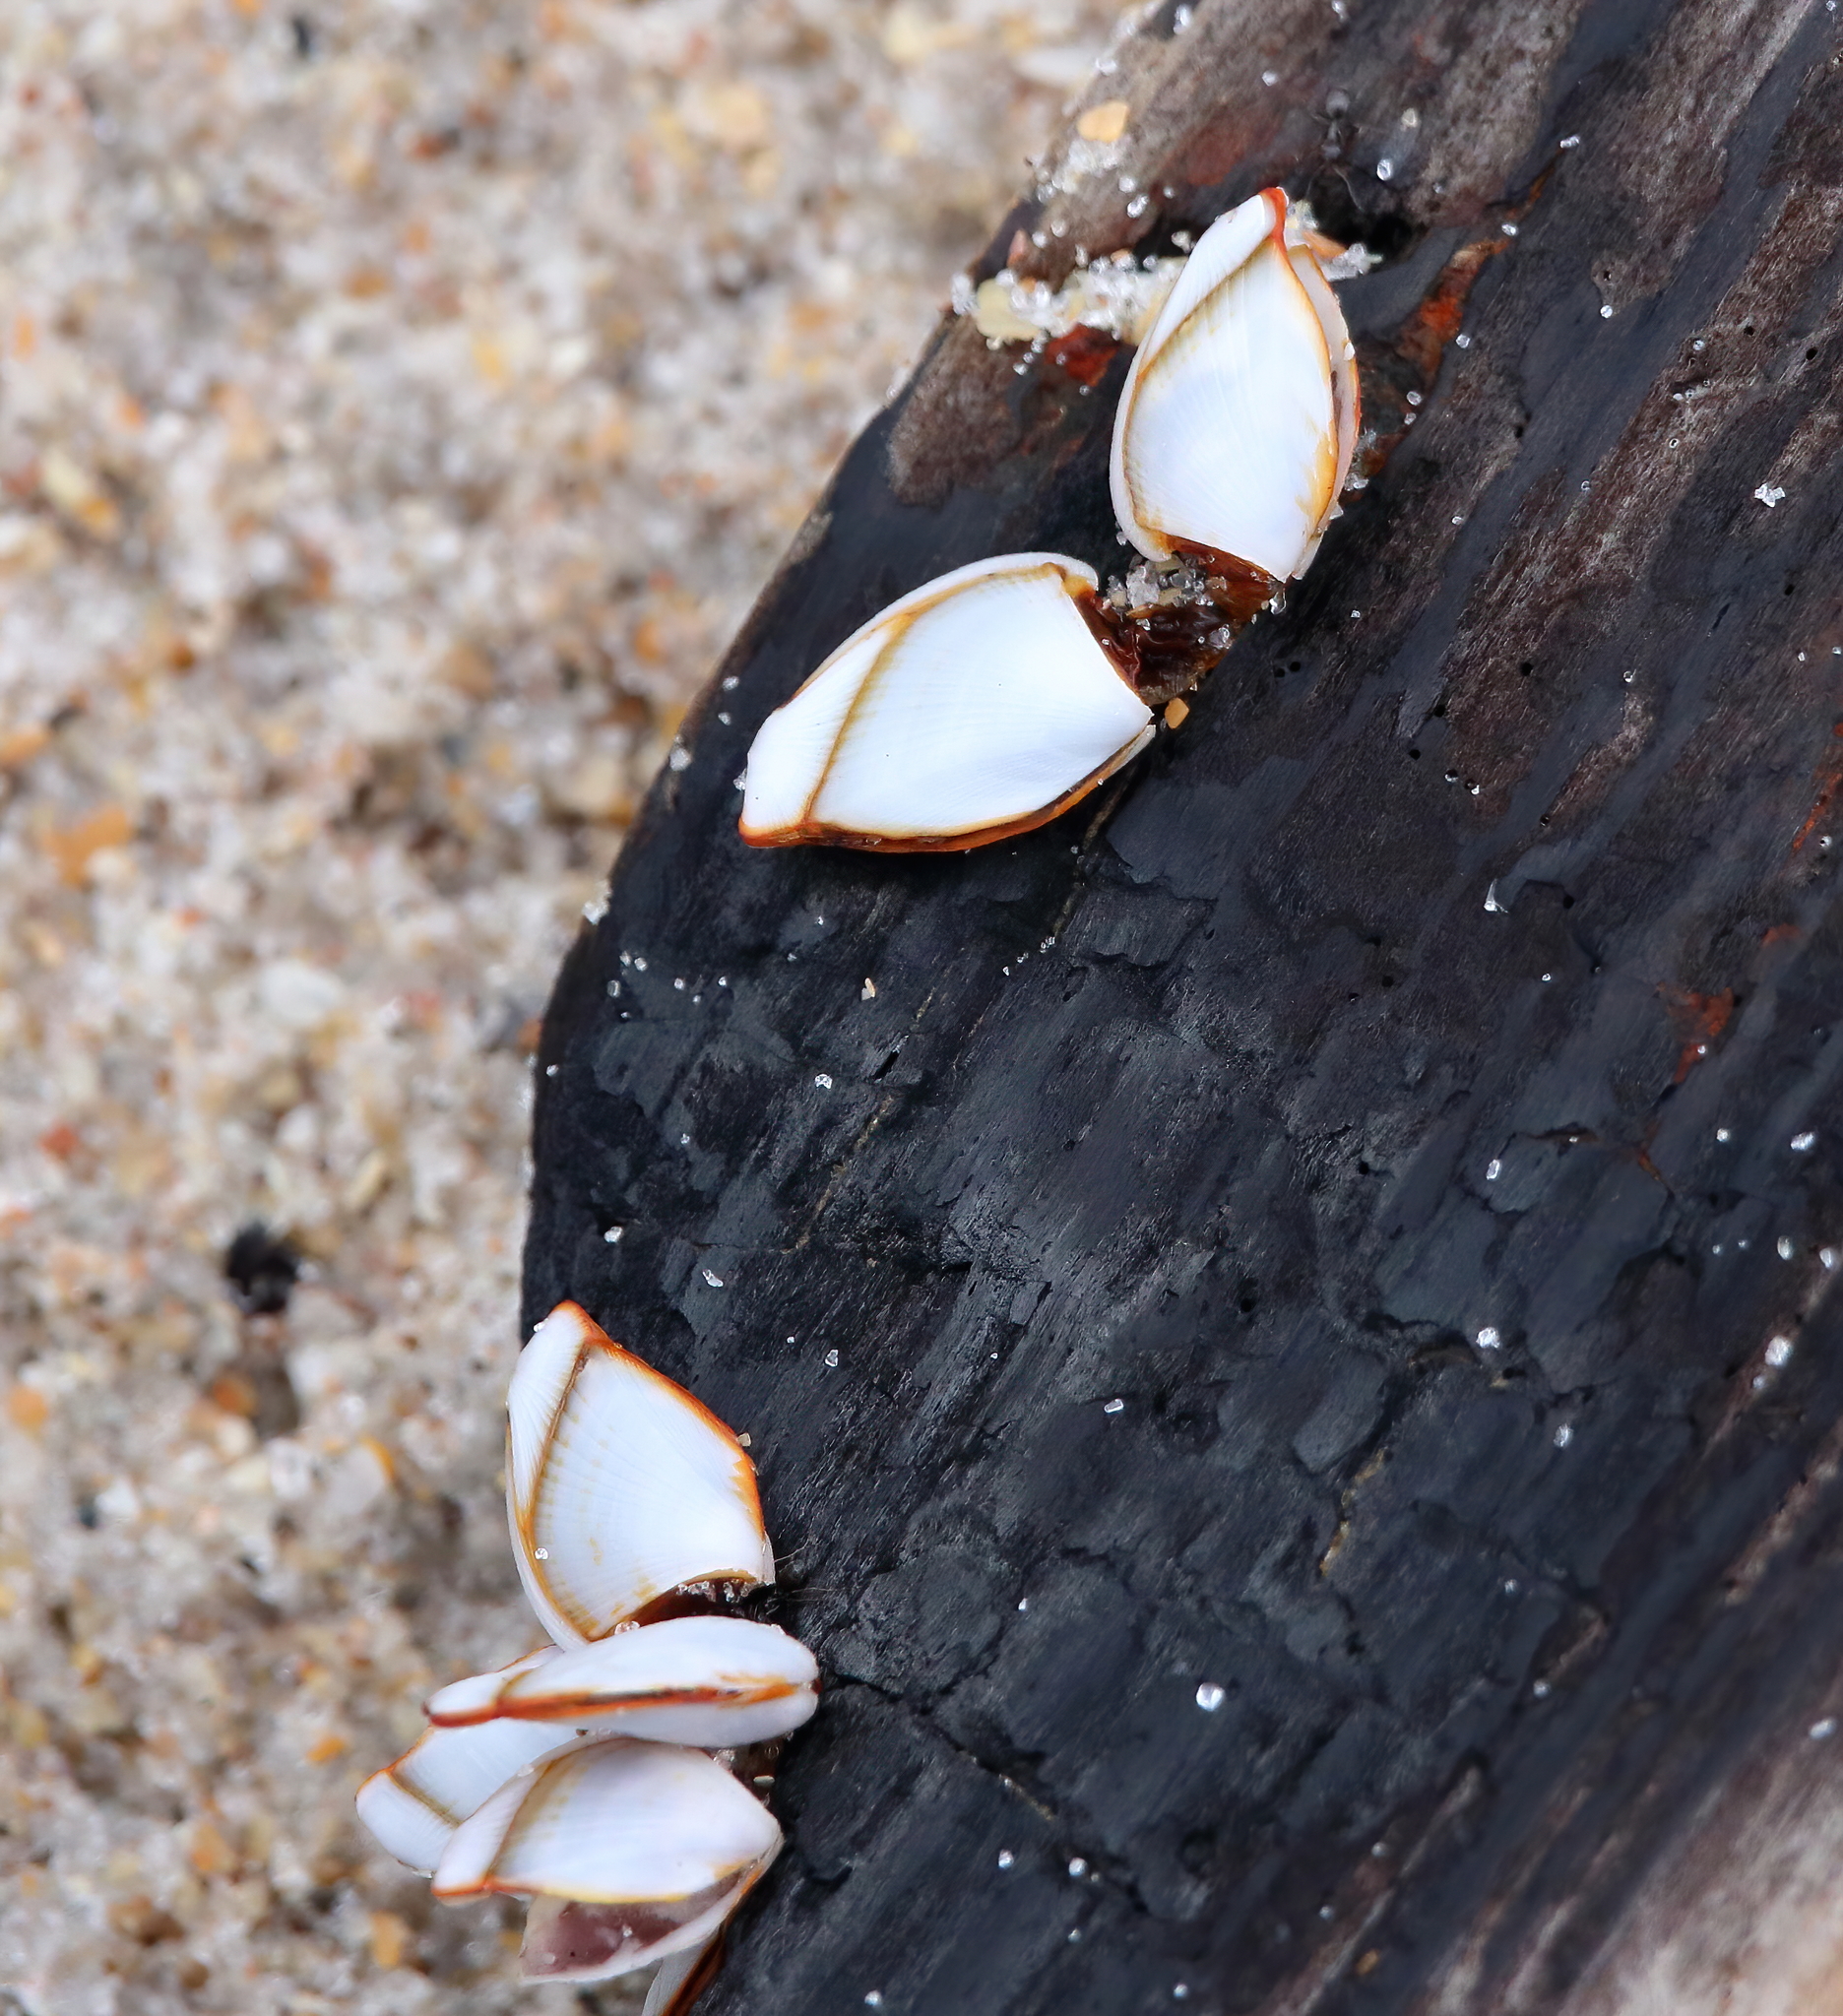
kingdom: Animalia
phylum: Arthropoda
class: Maxillopoda
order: Pedunculata
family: Lepadidae
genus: Lepas
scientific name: Lepas anserifera
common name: Goose barnacle
